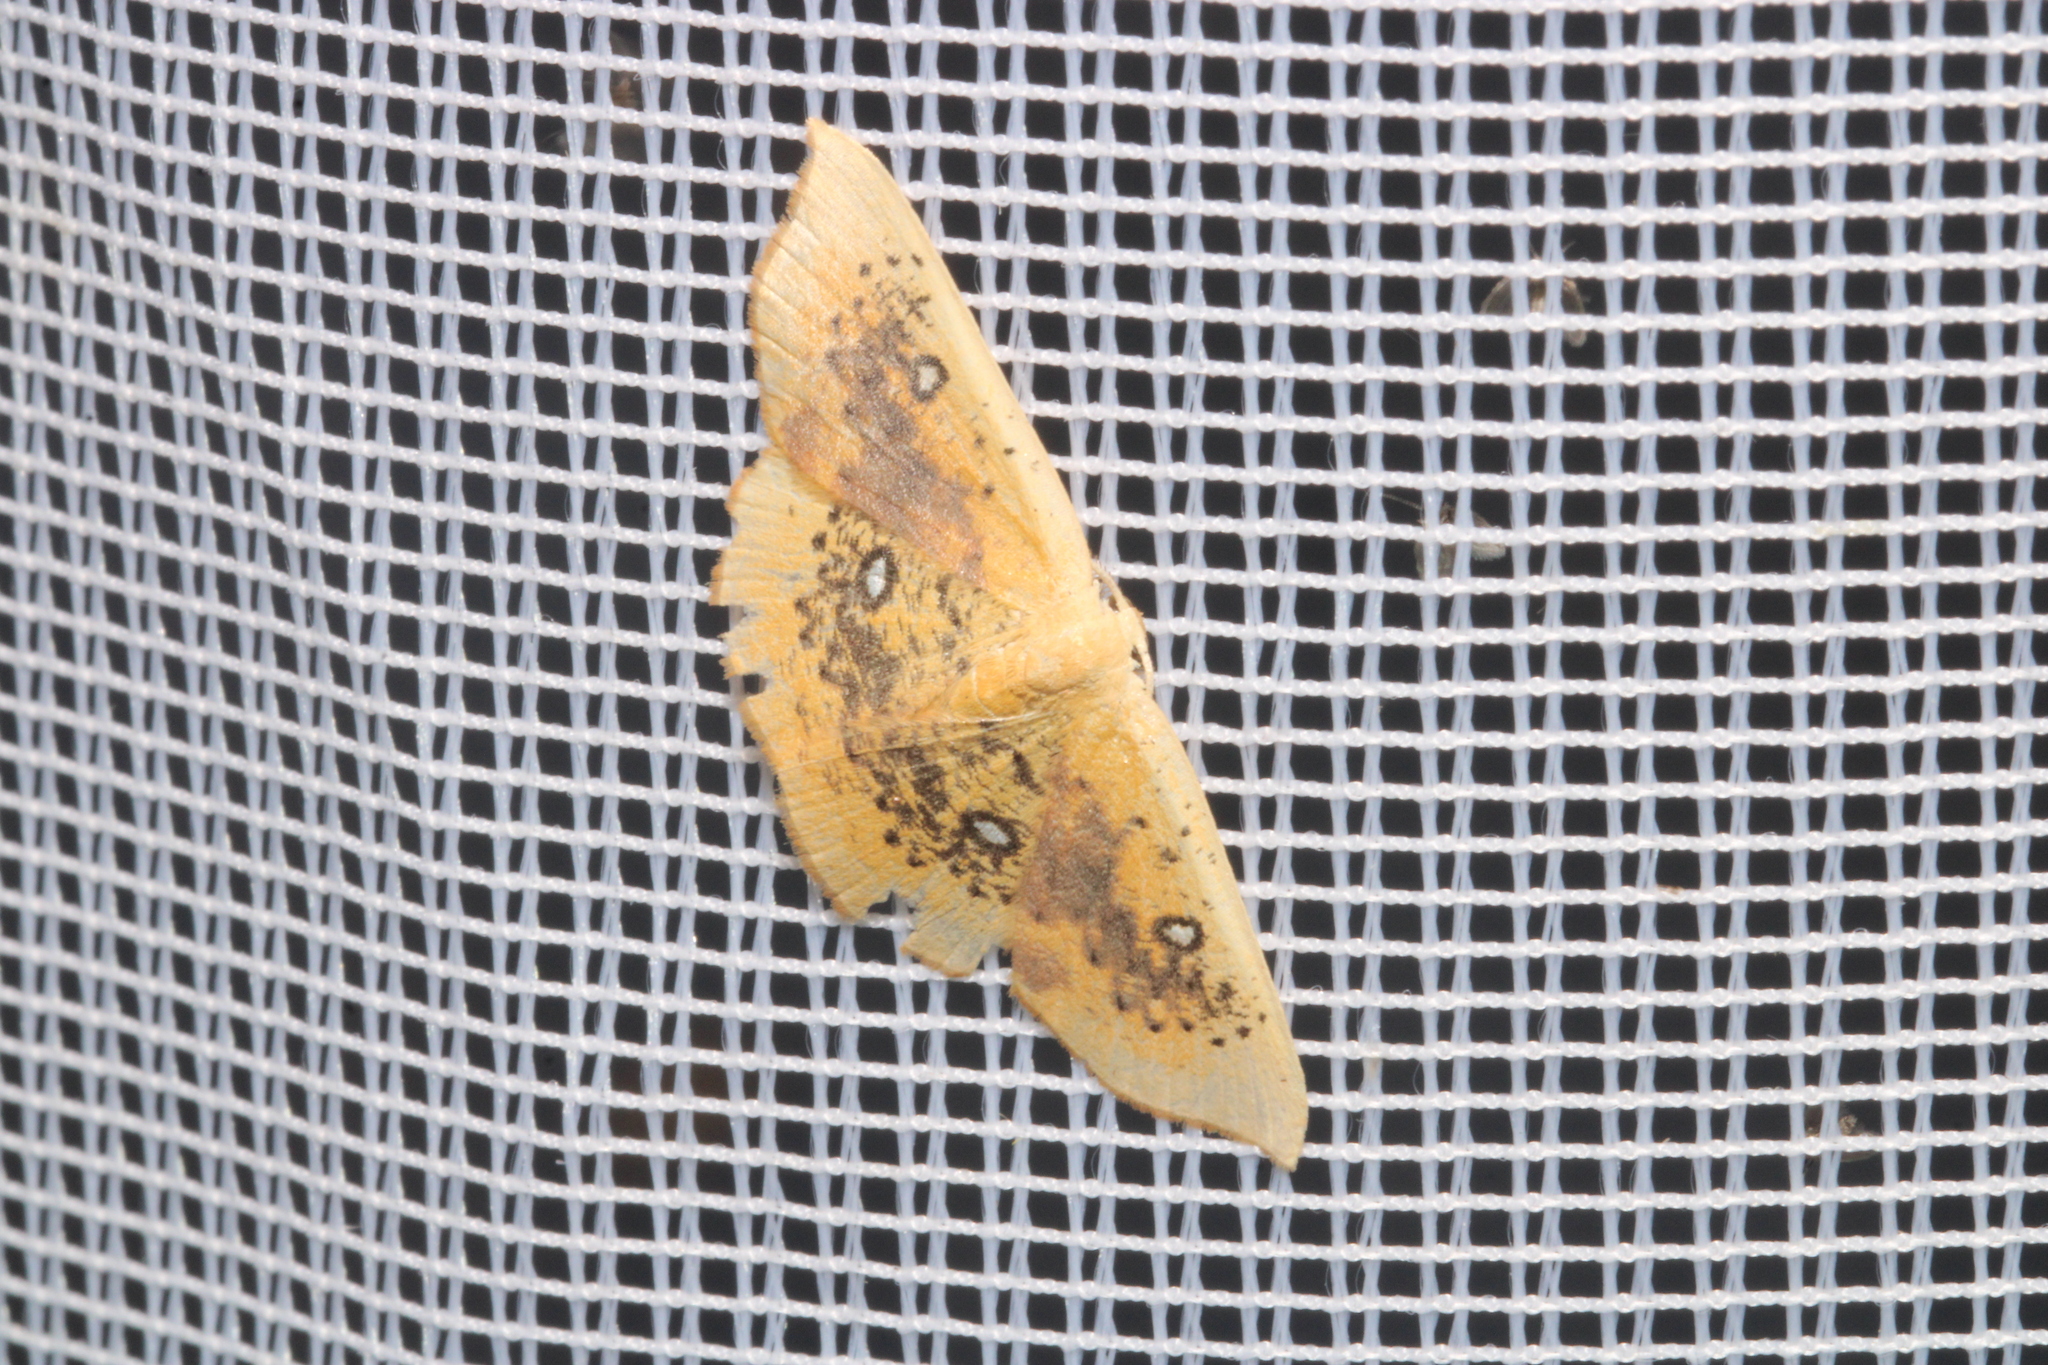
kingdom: Animalia
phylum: Arthropoda
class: Insecta
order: Lepidoptera
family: Geometridae
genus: Cyclophora
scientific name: Cyclophora albiocellaria
